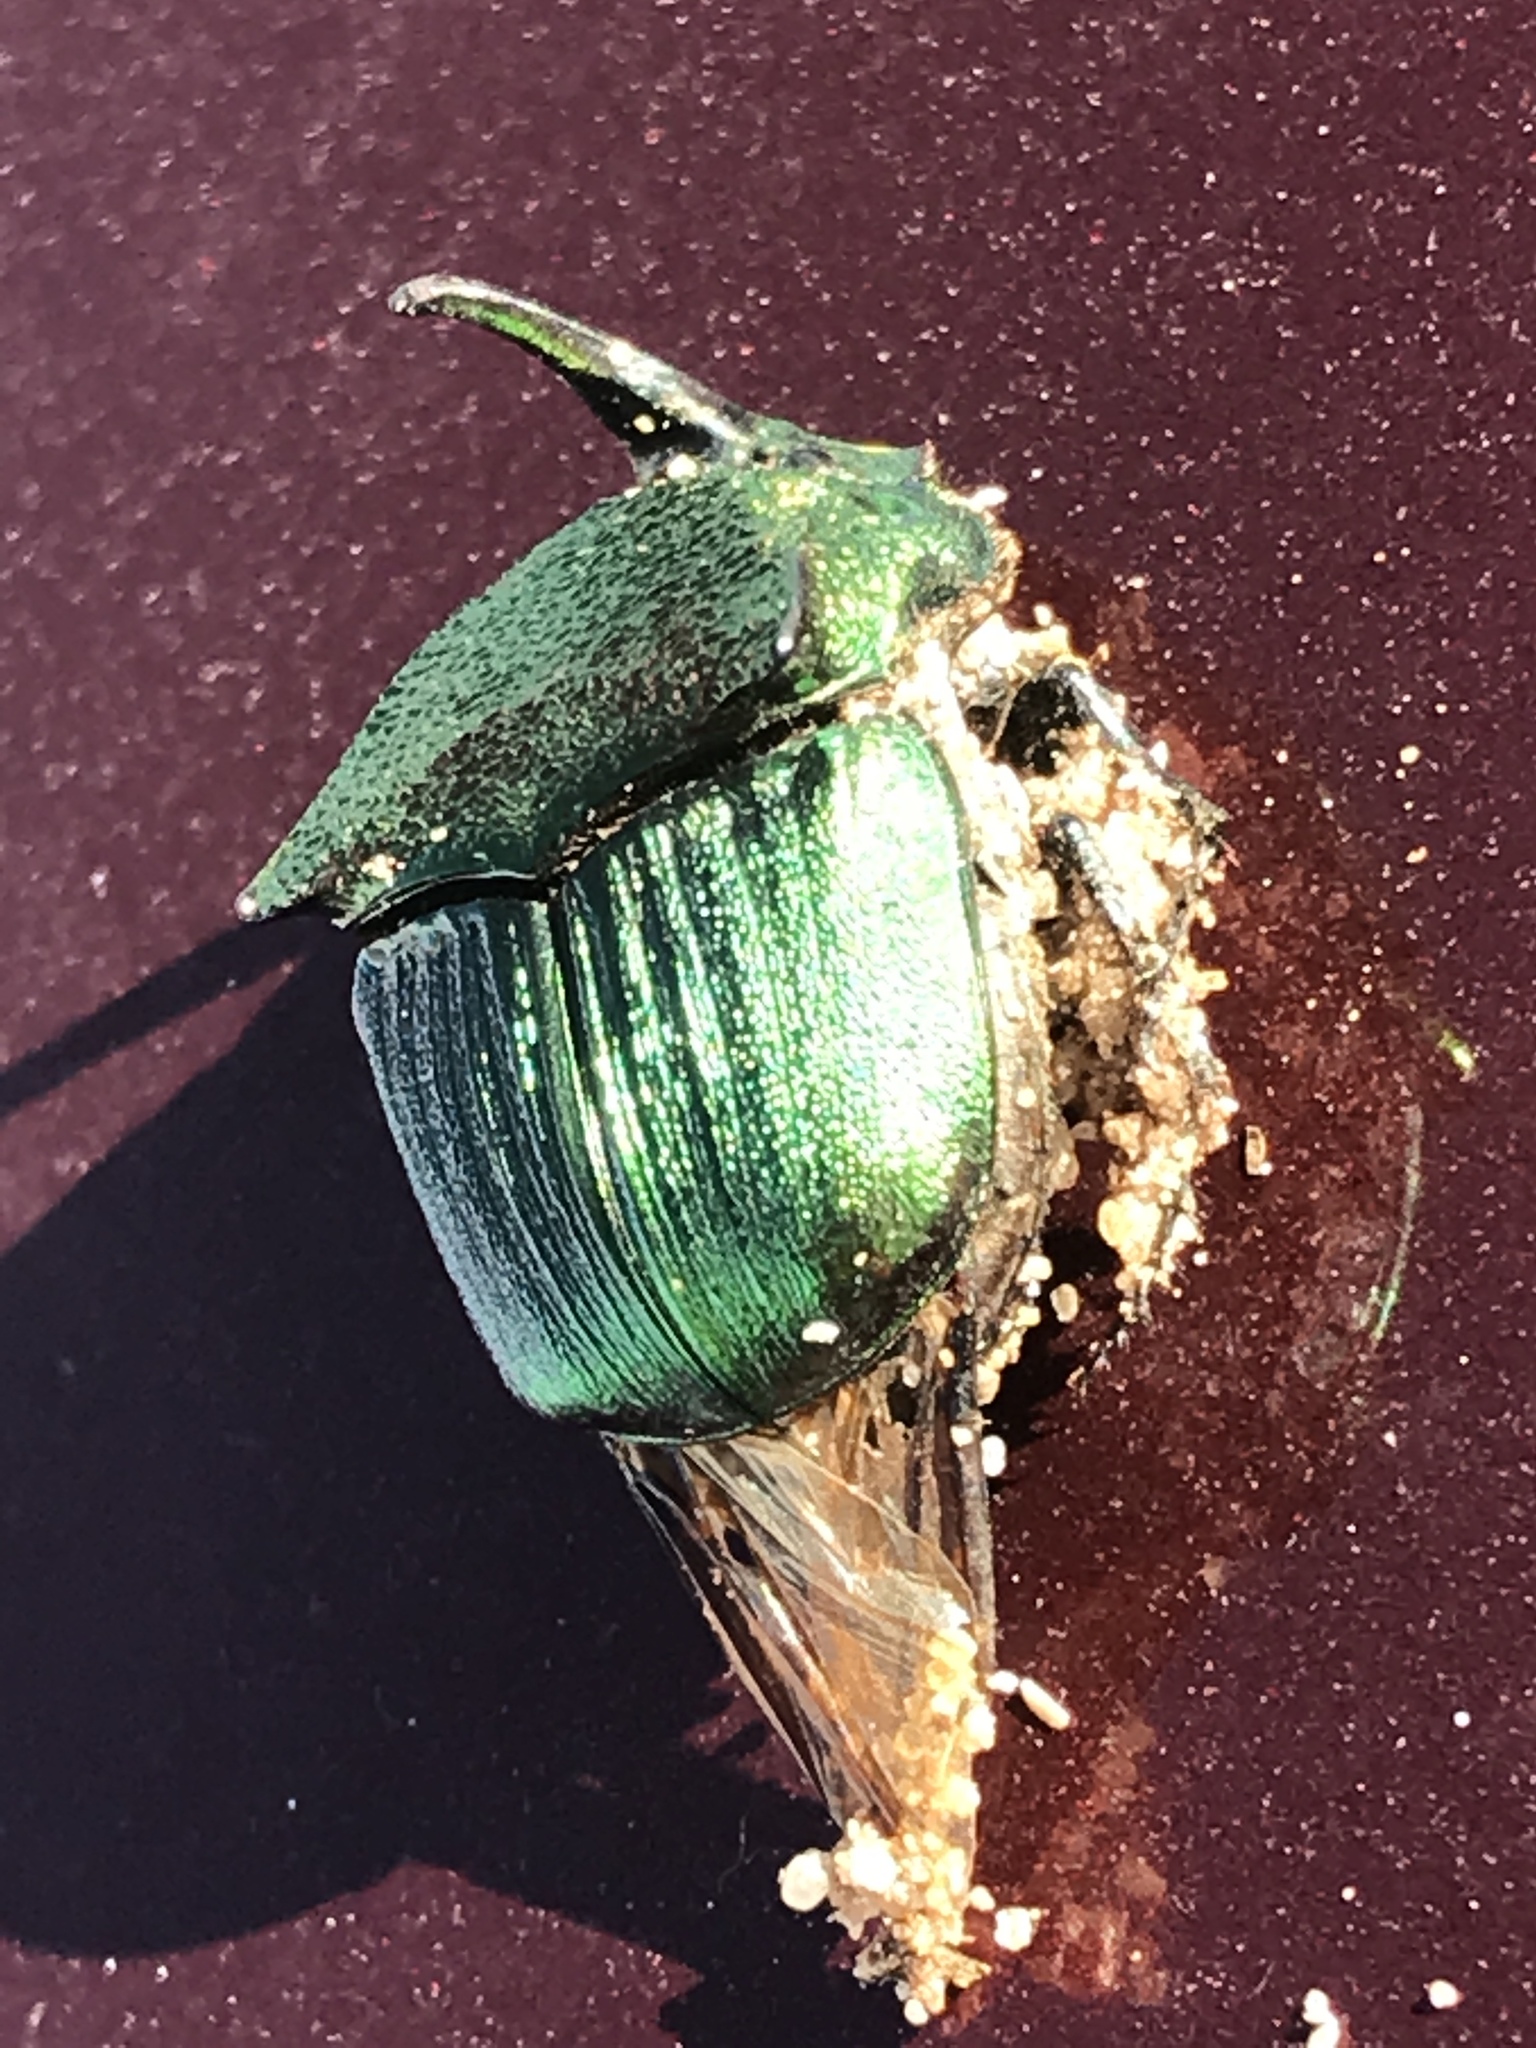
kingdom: Animalia
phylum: Arthropoda
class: Insecta
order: Coleoptera
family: Scarabaeidae
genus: Phanaeus
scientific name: Phanaeus vindex
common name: Rainbow scarab
